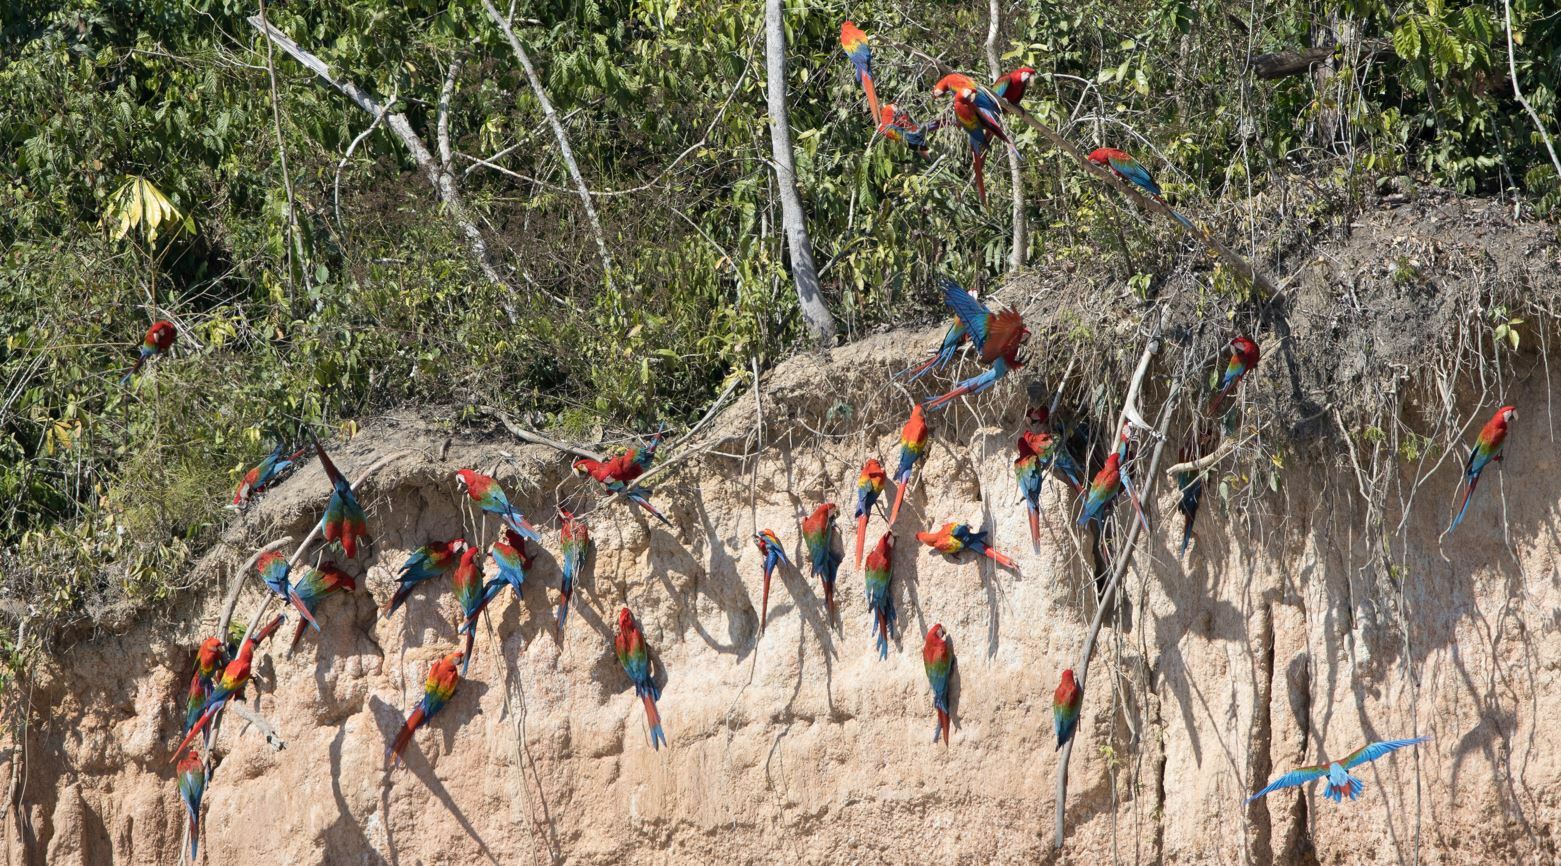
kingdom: Animalia
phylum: Chordata
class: Aves
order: Psittaciformes
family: Psittacidae
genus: Ara
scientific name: Ara macao
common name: Scarlet macaw
